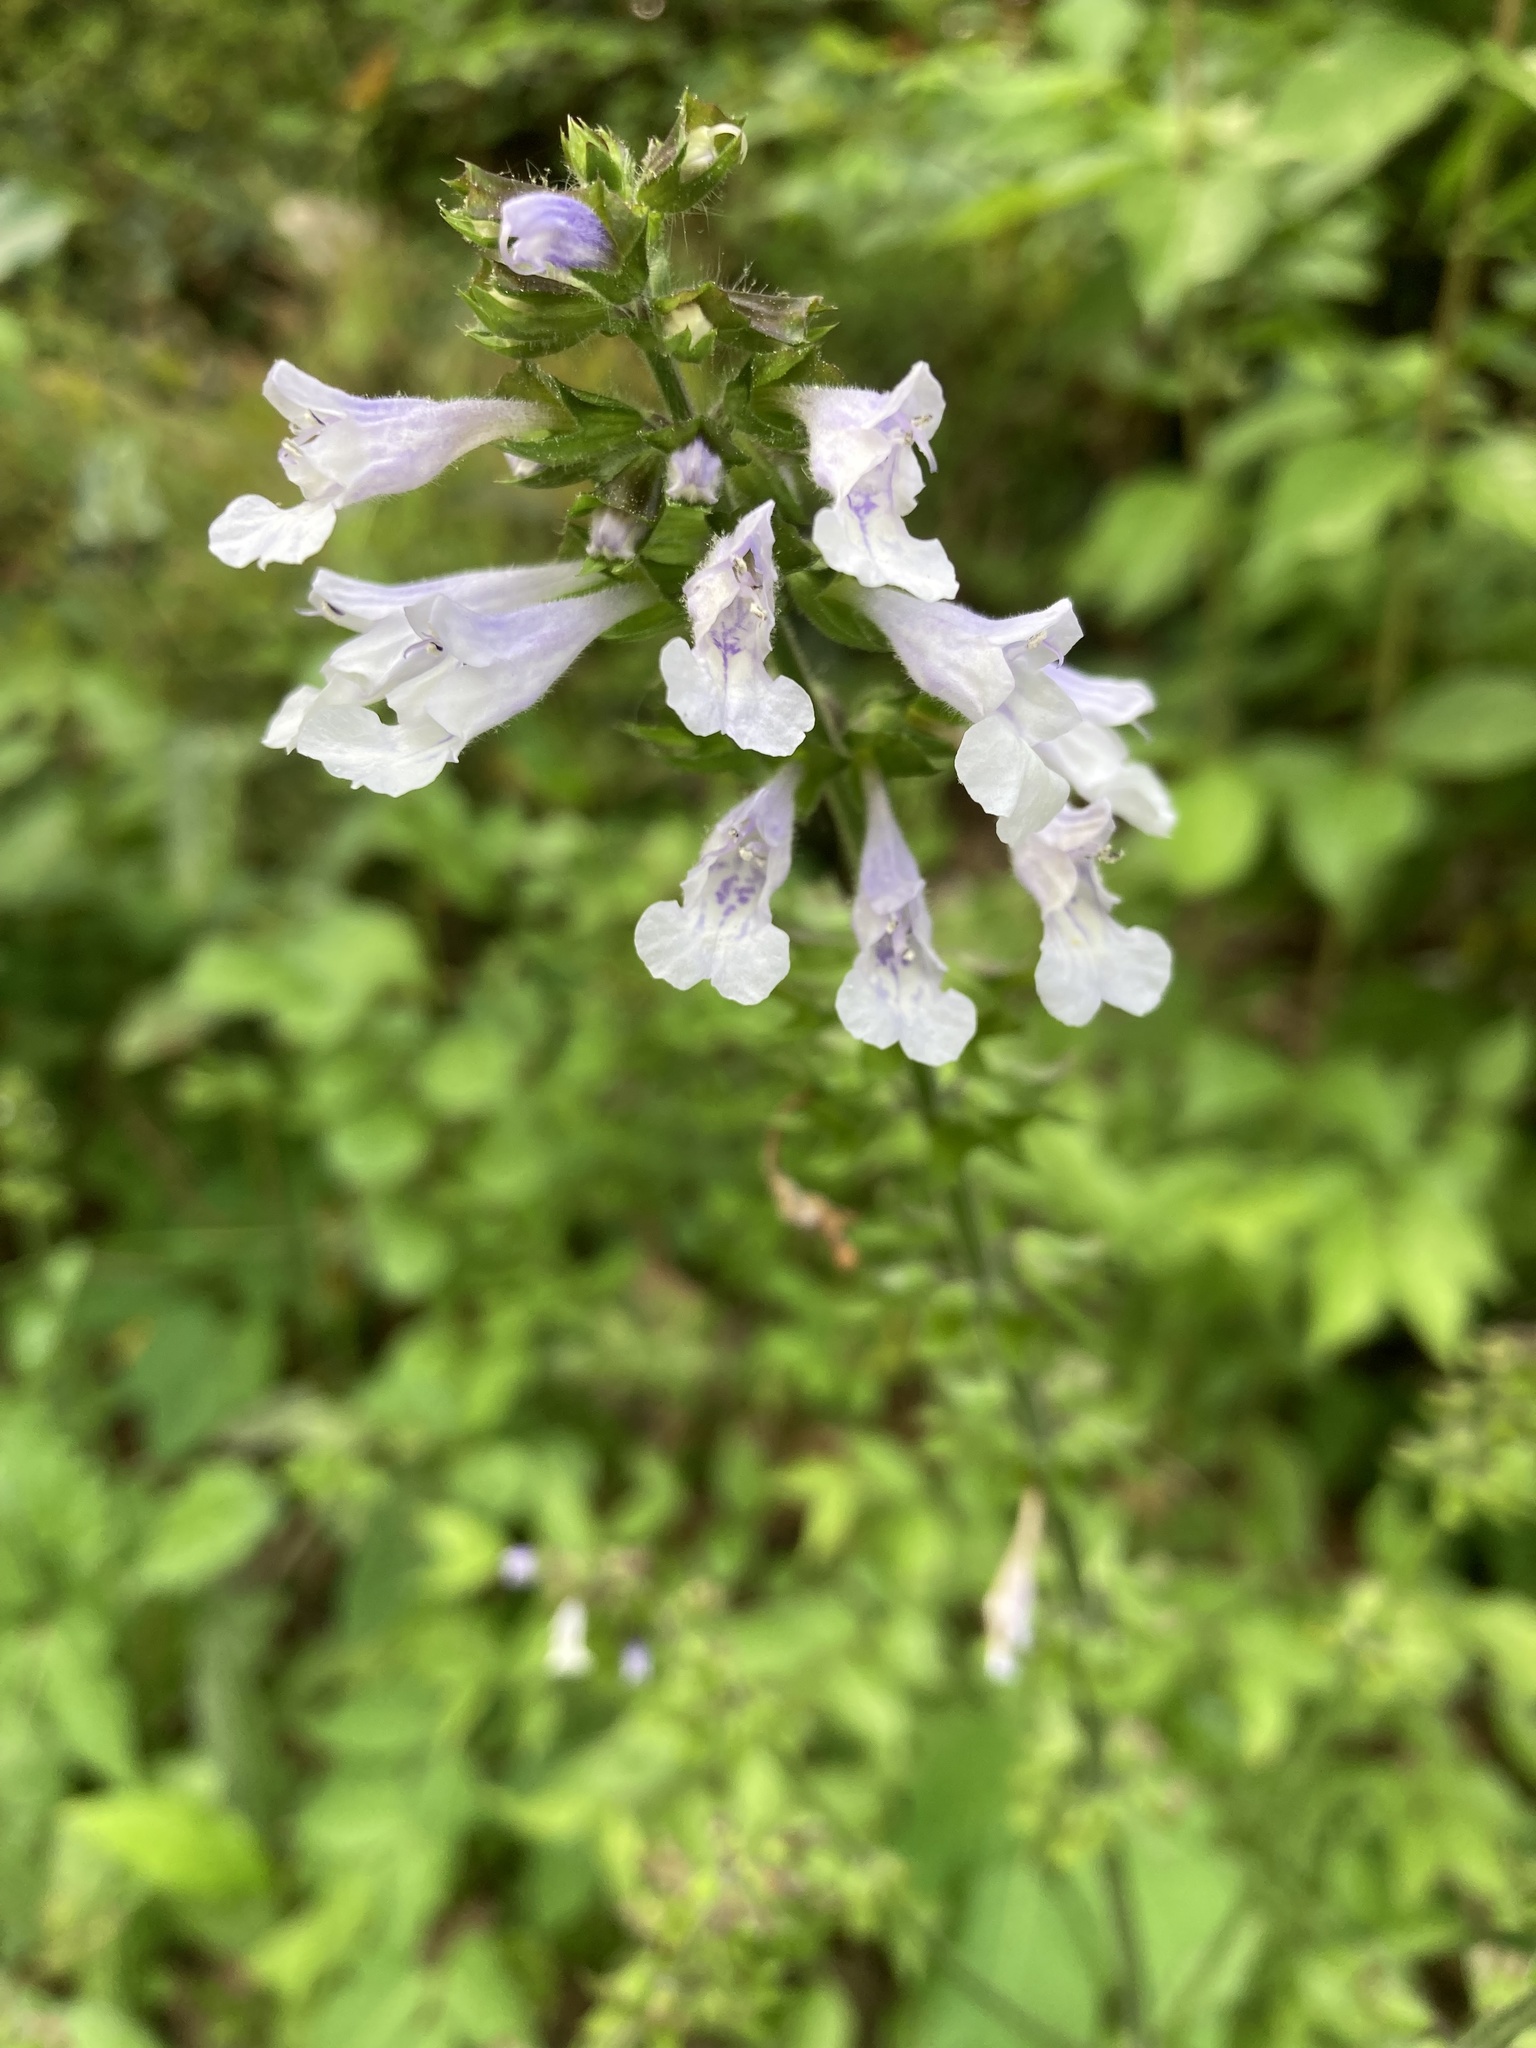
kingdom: Plantae
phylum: Tracheophyta
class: Magnoliopsida
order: Lamiales
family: Lamiaceae
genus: Salvia
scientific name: Salvia lyrata
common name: Cancerweed
